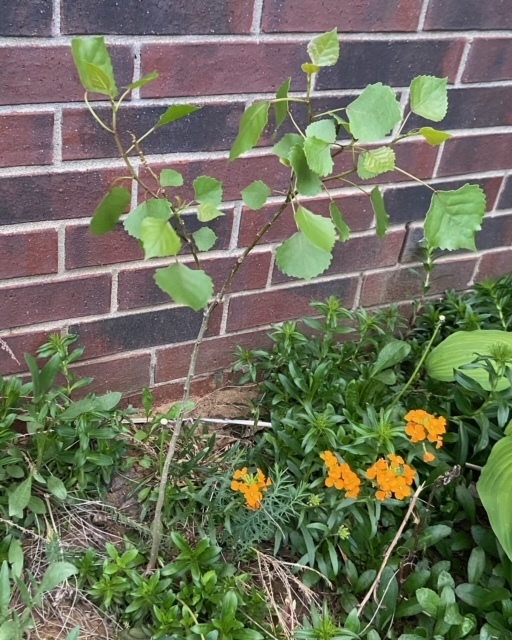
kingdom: Plantae
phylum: Tracheophyta
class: Magnoliopsida
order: Malpighiales
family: Salicaceae
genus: Populus
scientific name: Populus deltoides
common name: Eastern cottonwood
